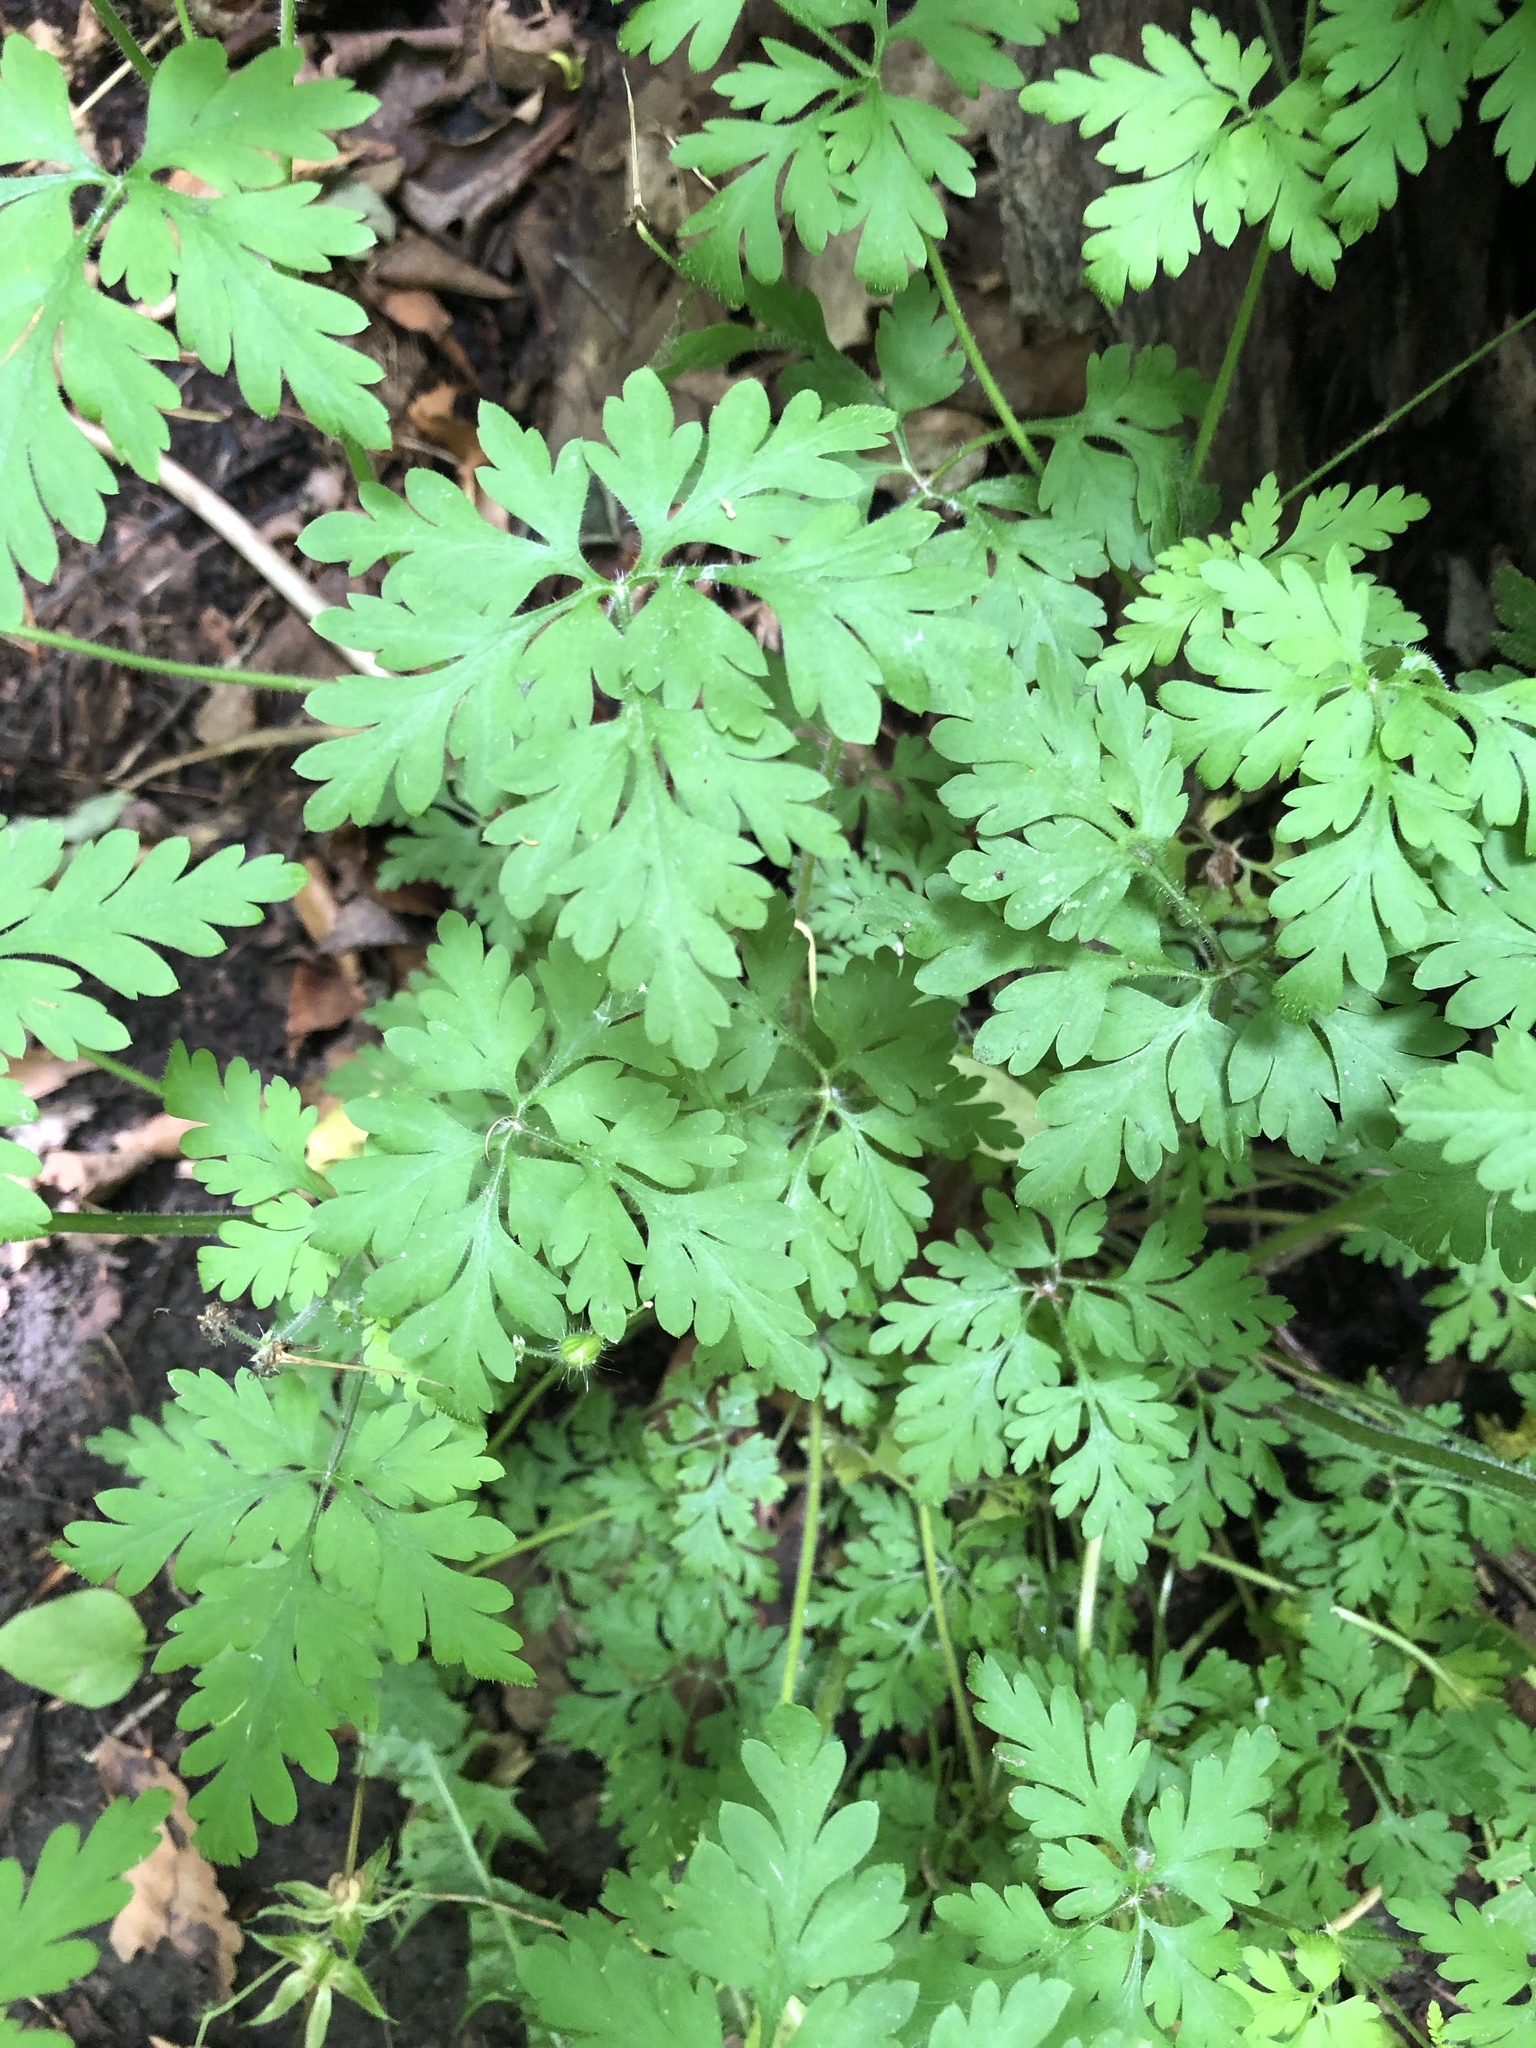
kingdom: Plantae
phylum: Tracheophyta
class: Magnoliopsida
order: Geraniales
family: Geraniaceae
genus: Geranium
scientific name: Geranium robertianum
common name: Herb-robert
